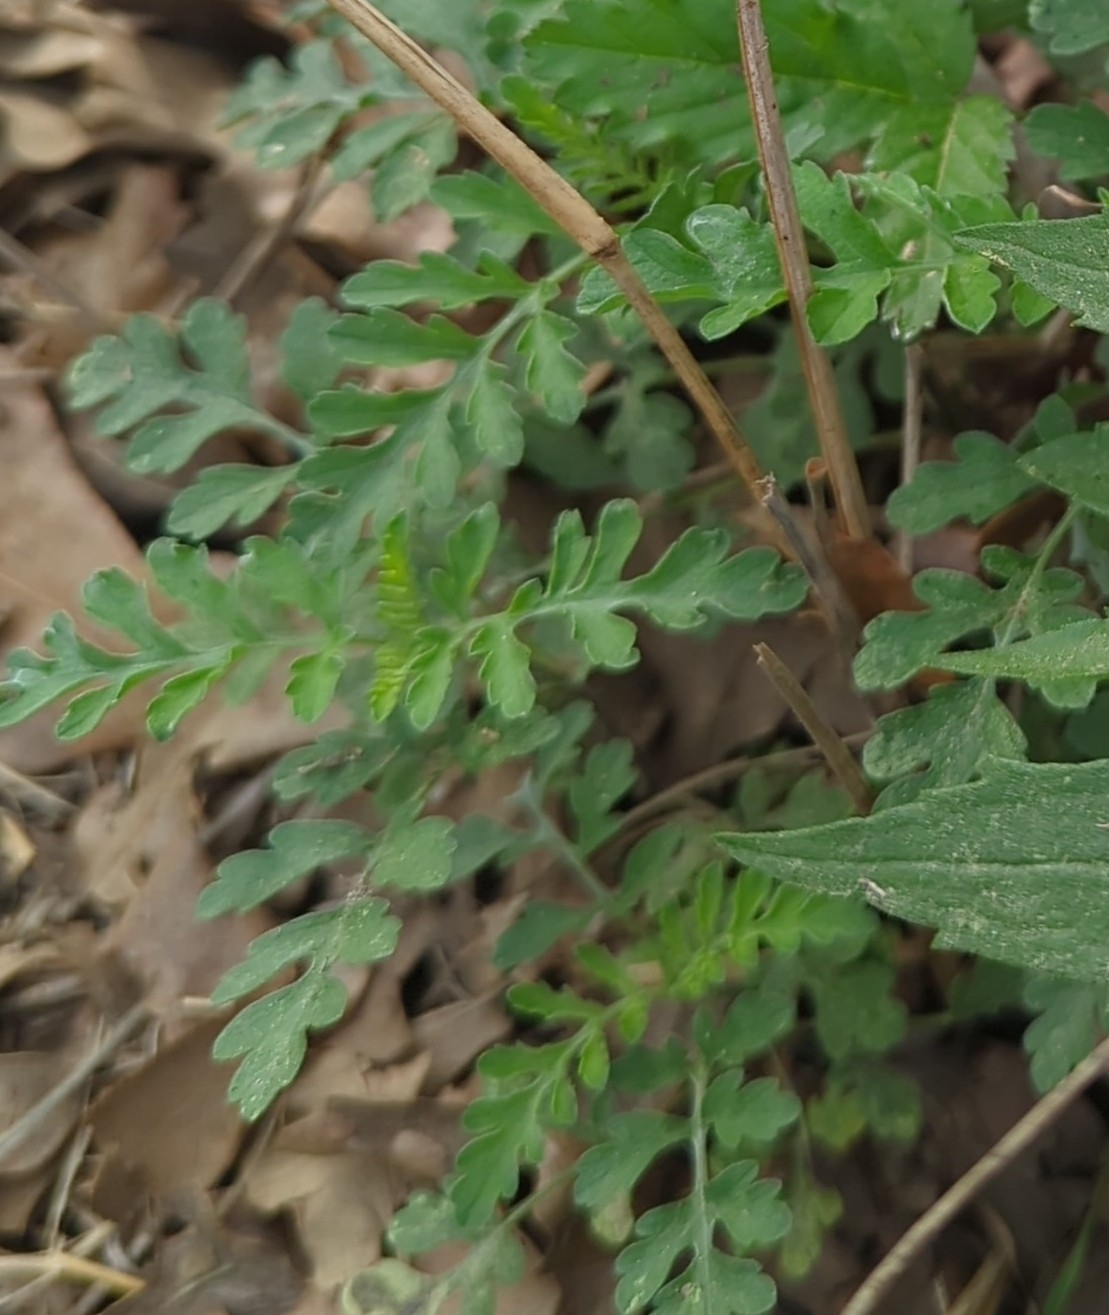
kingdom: Plantae
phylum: Tracheophyta
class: Magnoliopsida
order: Asterales
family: Asteraceae
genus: Ambrosia
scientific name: Ambrosia artemisiifolia
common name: Annual ragweed
